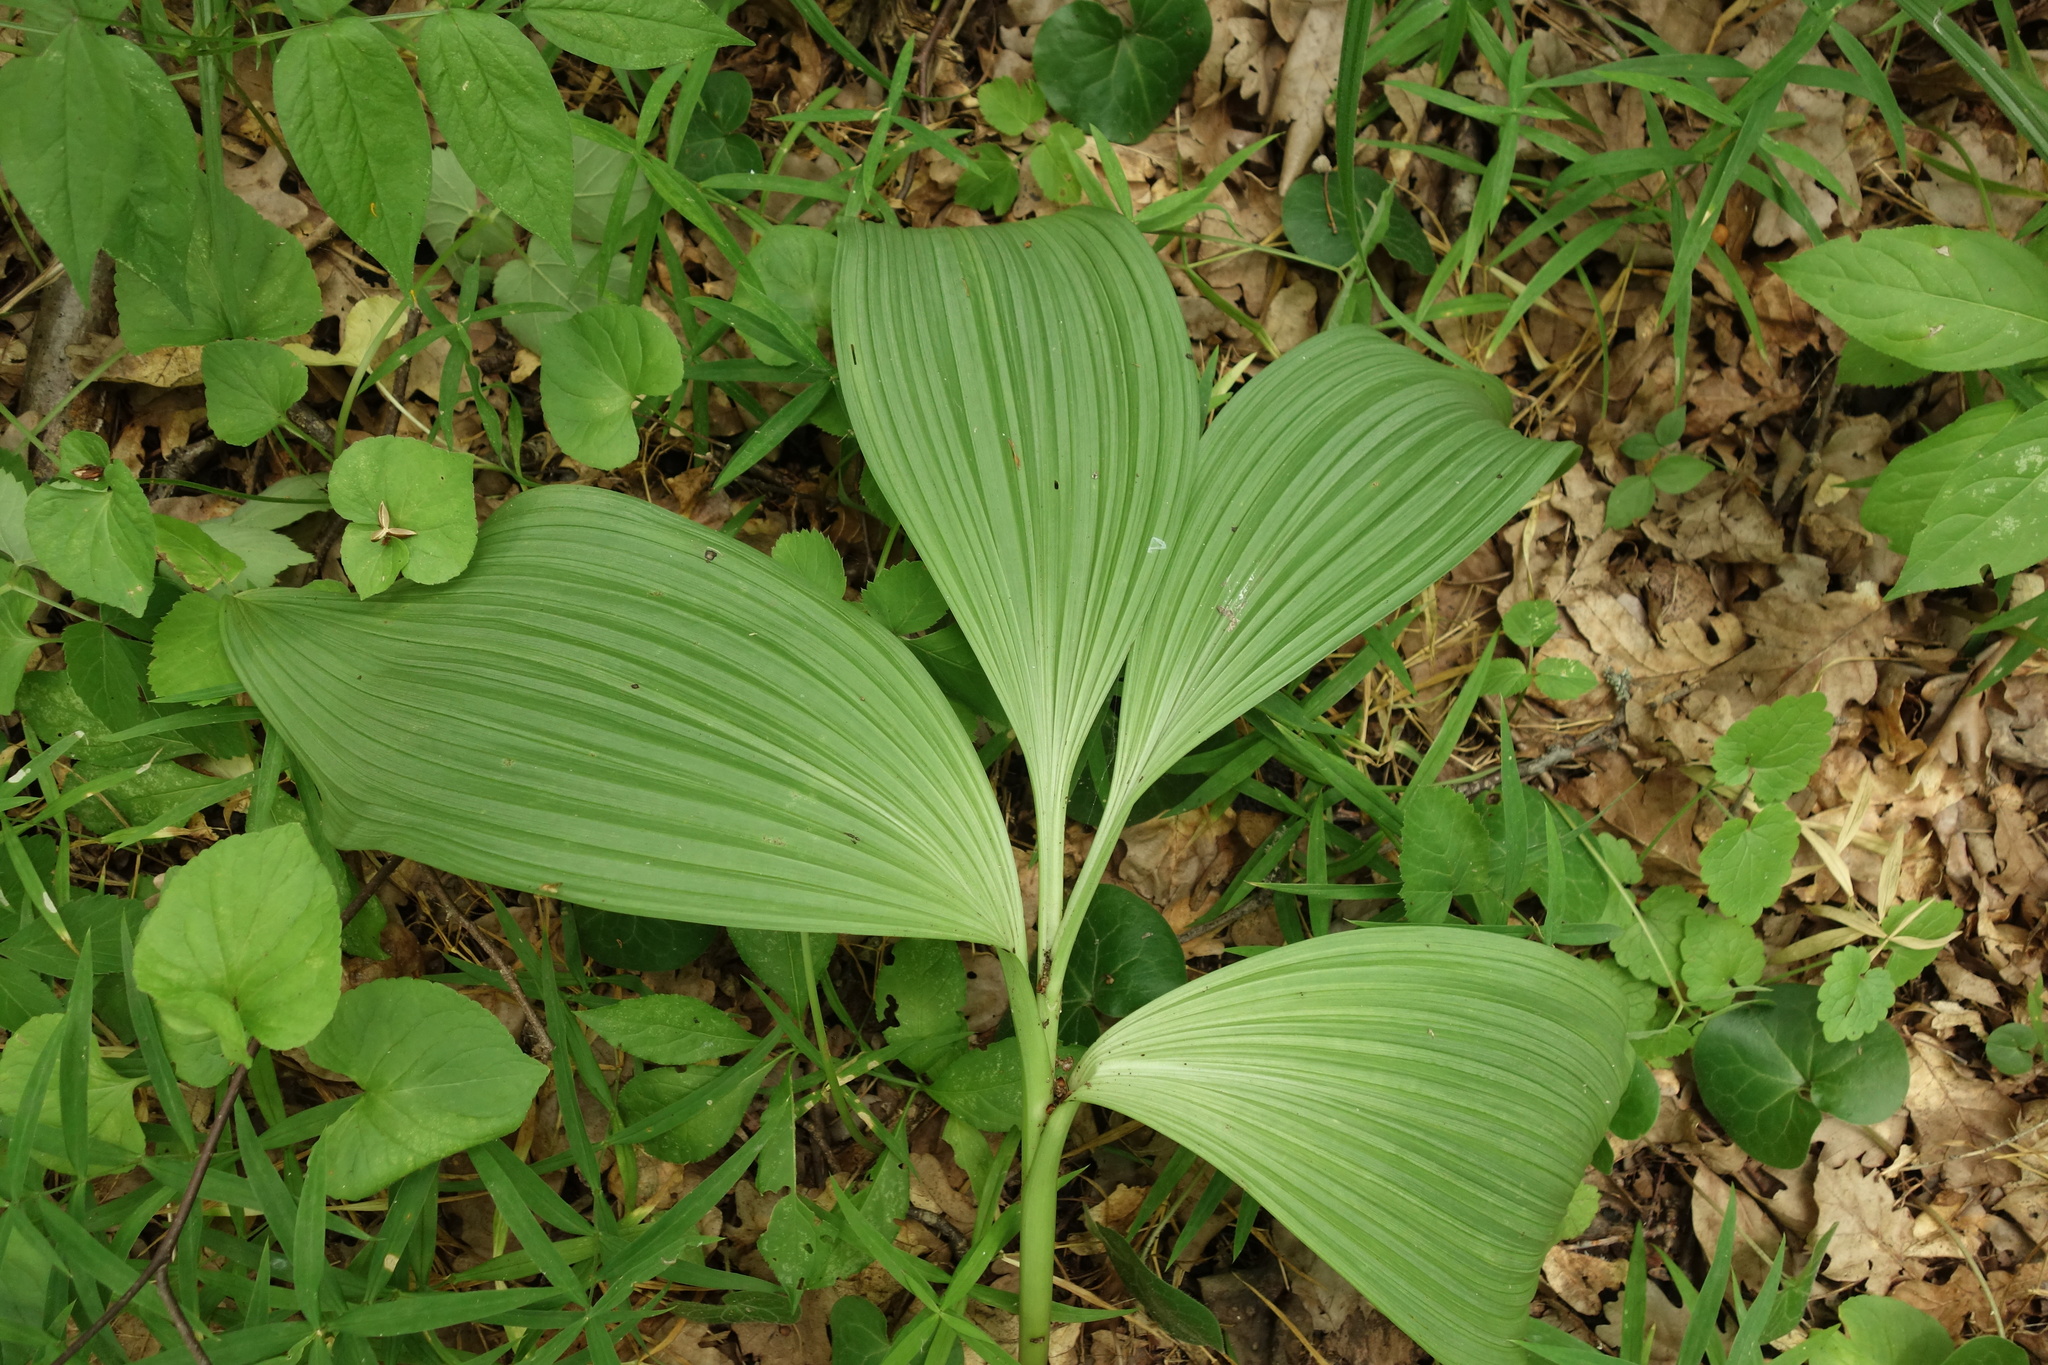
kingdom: Plantae
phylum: Tracheophyta
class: Liliopsida
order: Liliales
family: Melanthiaceae
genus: Veratrum
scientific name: Veratrum nigrum
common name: Black veratrum
